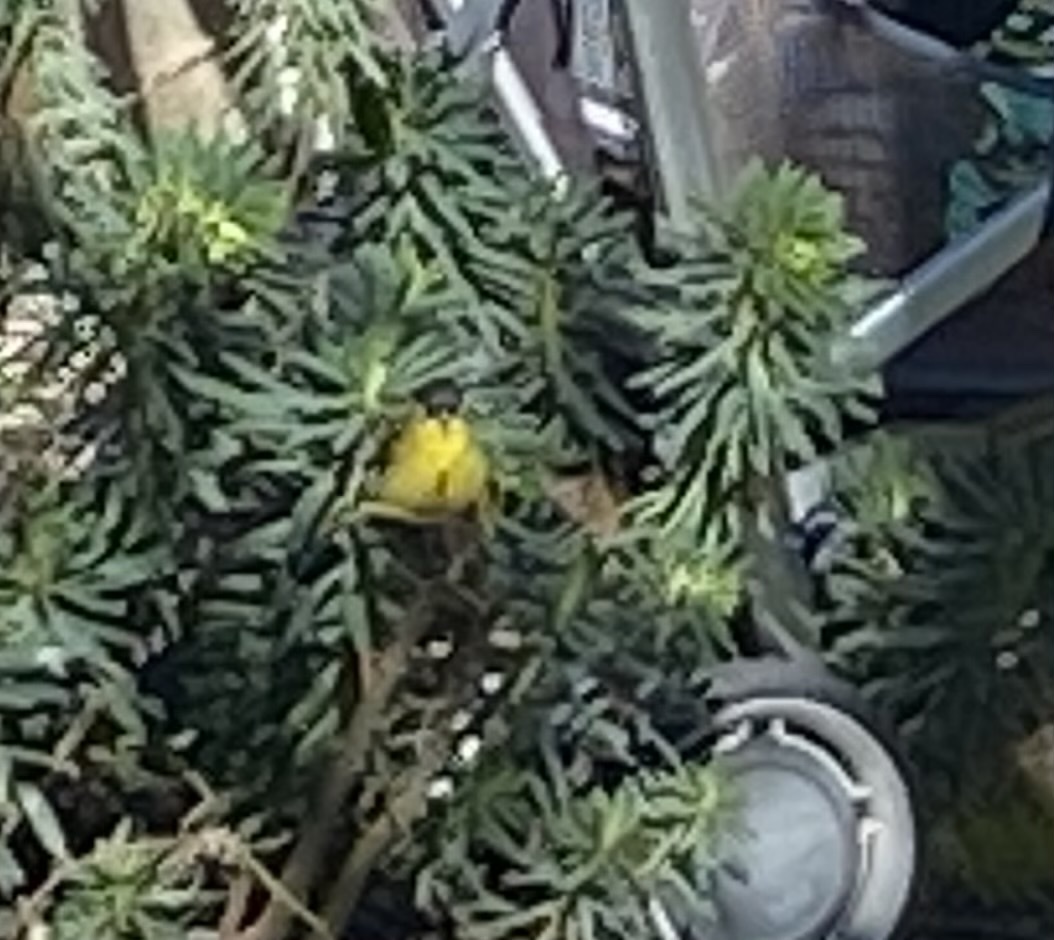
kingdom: Animalia
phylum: Chordata
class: Aves
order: Passeriformes
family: Fringillidae
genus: Spinus
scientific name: Spinus psaltria
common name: Lesser goldfinch
